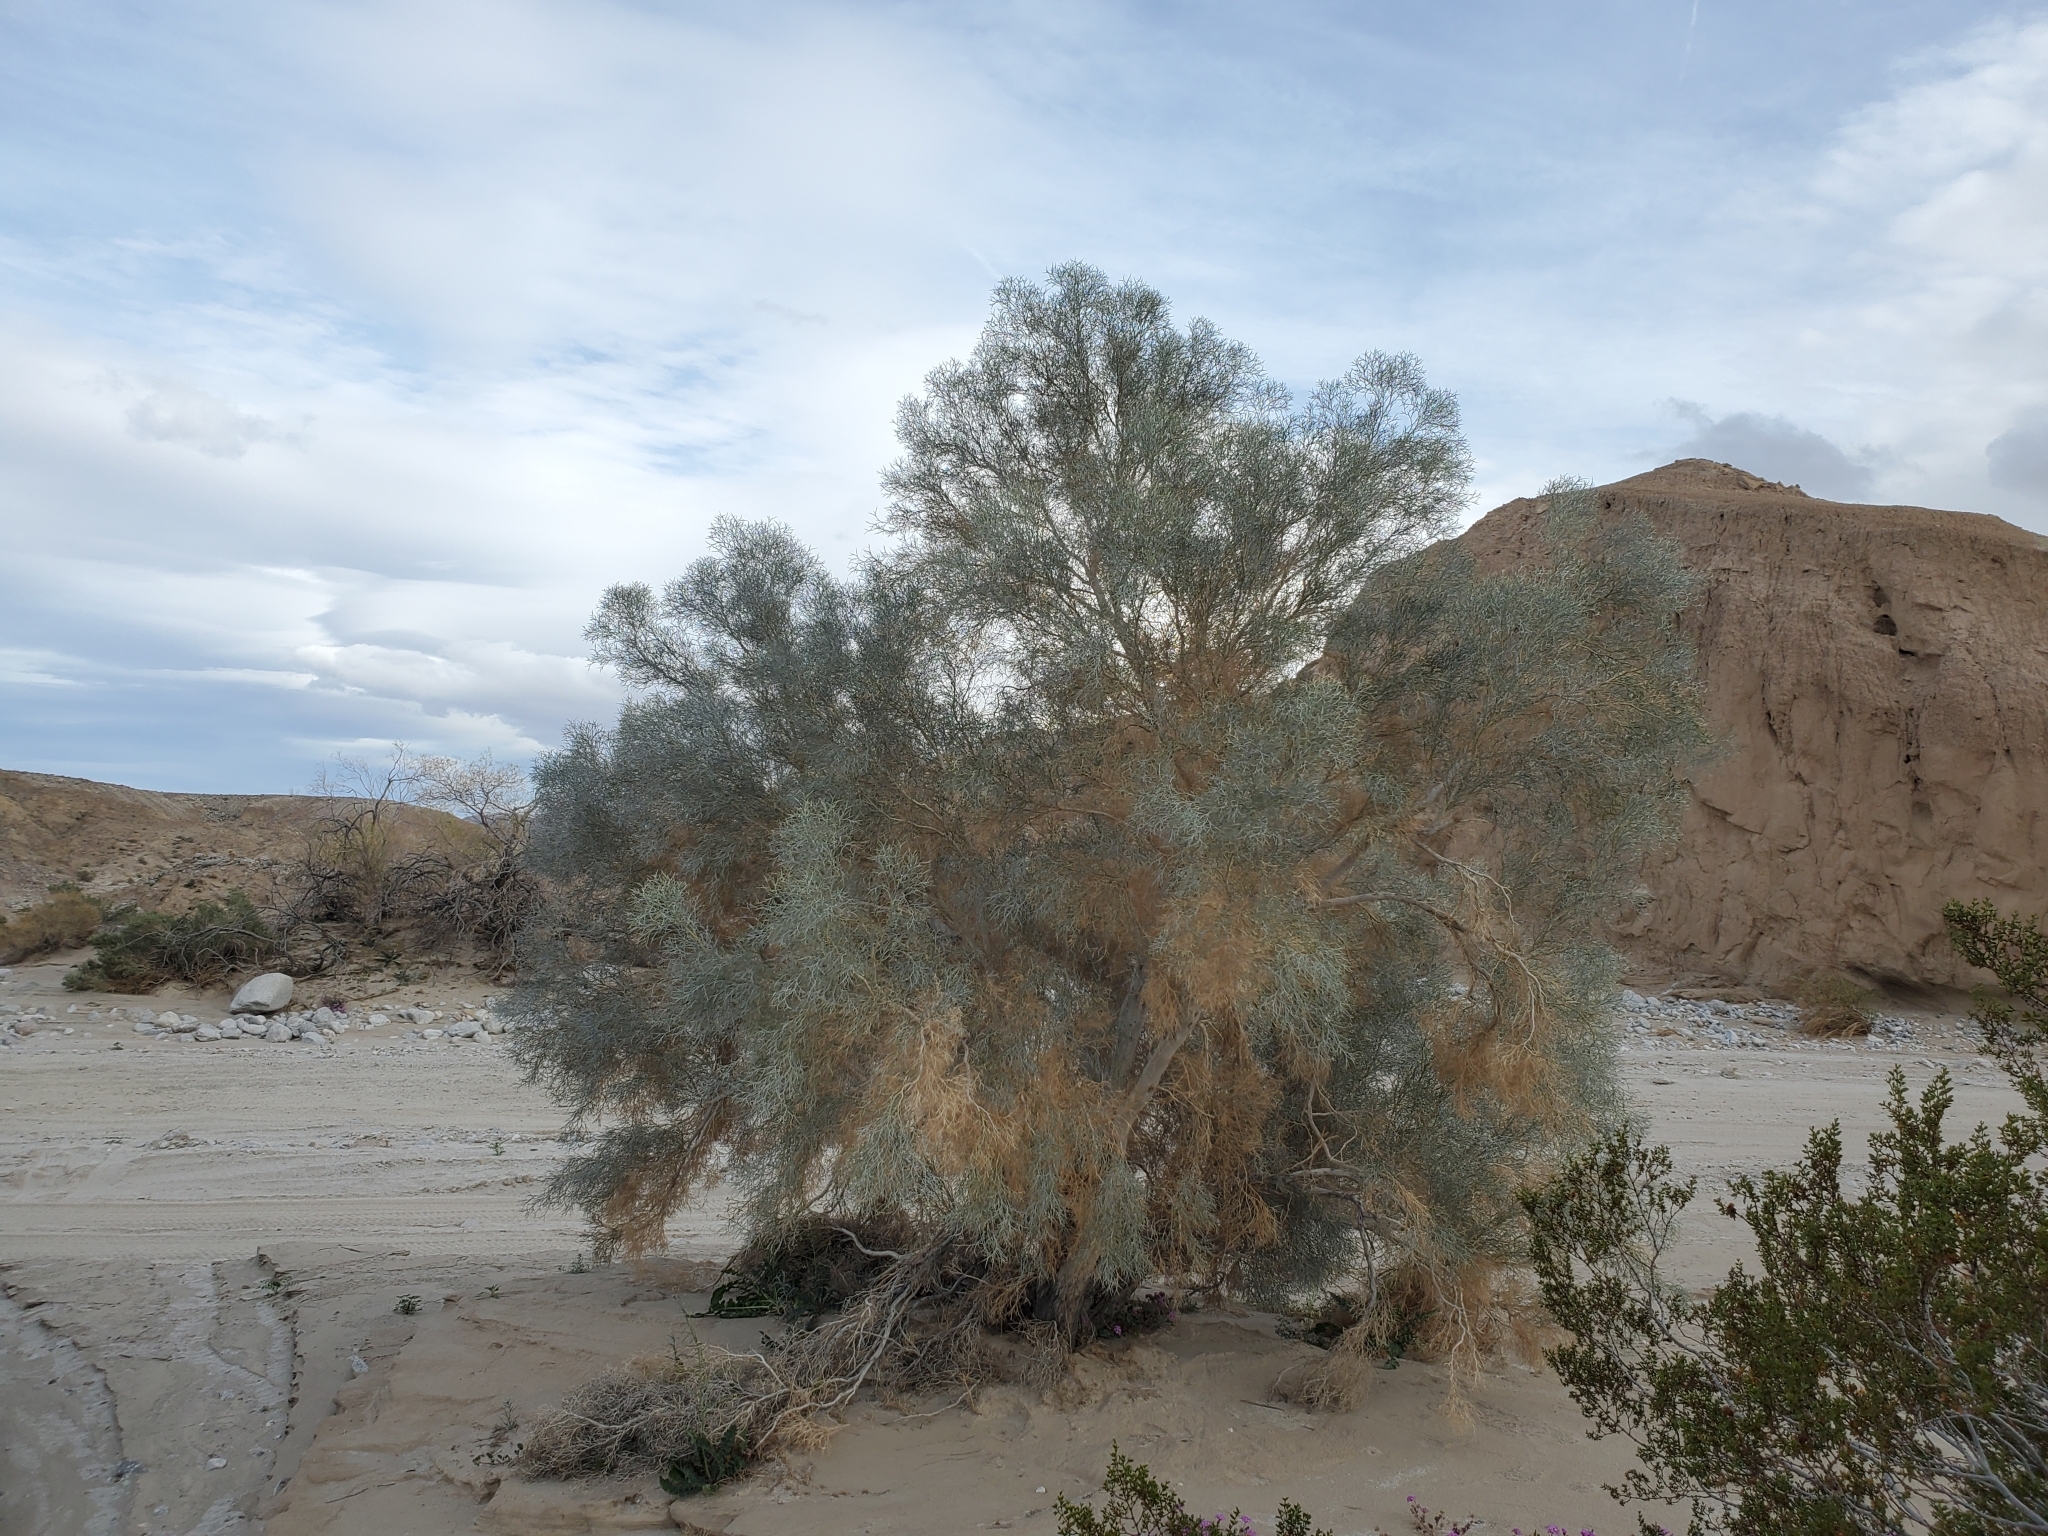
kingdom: Plantae
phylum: Tracheophyta
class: Magnoliopsida
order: Fabales
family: Fabaceae
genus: Psorothamnus
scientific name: Psorothamnus spinosus
